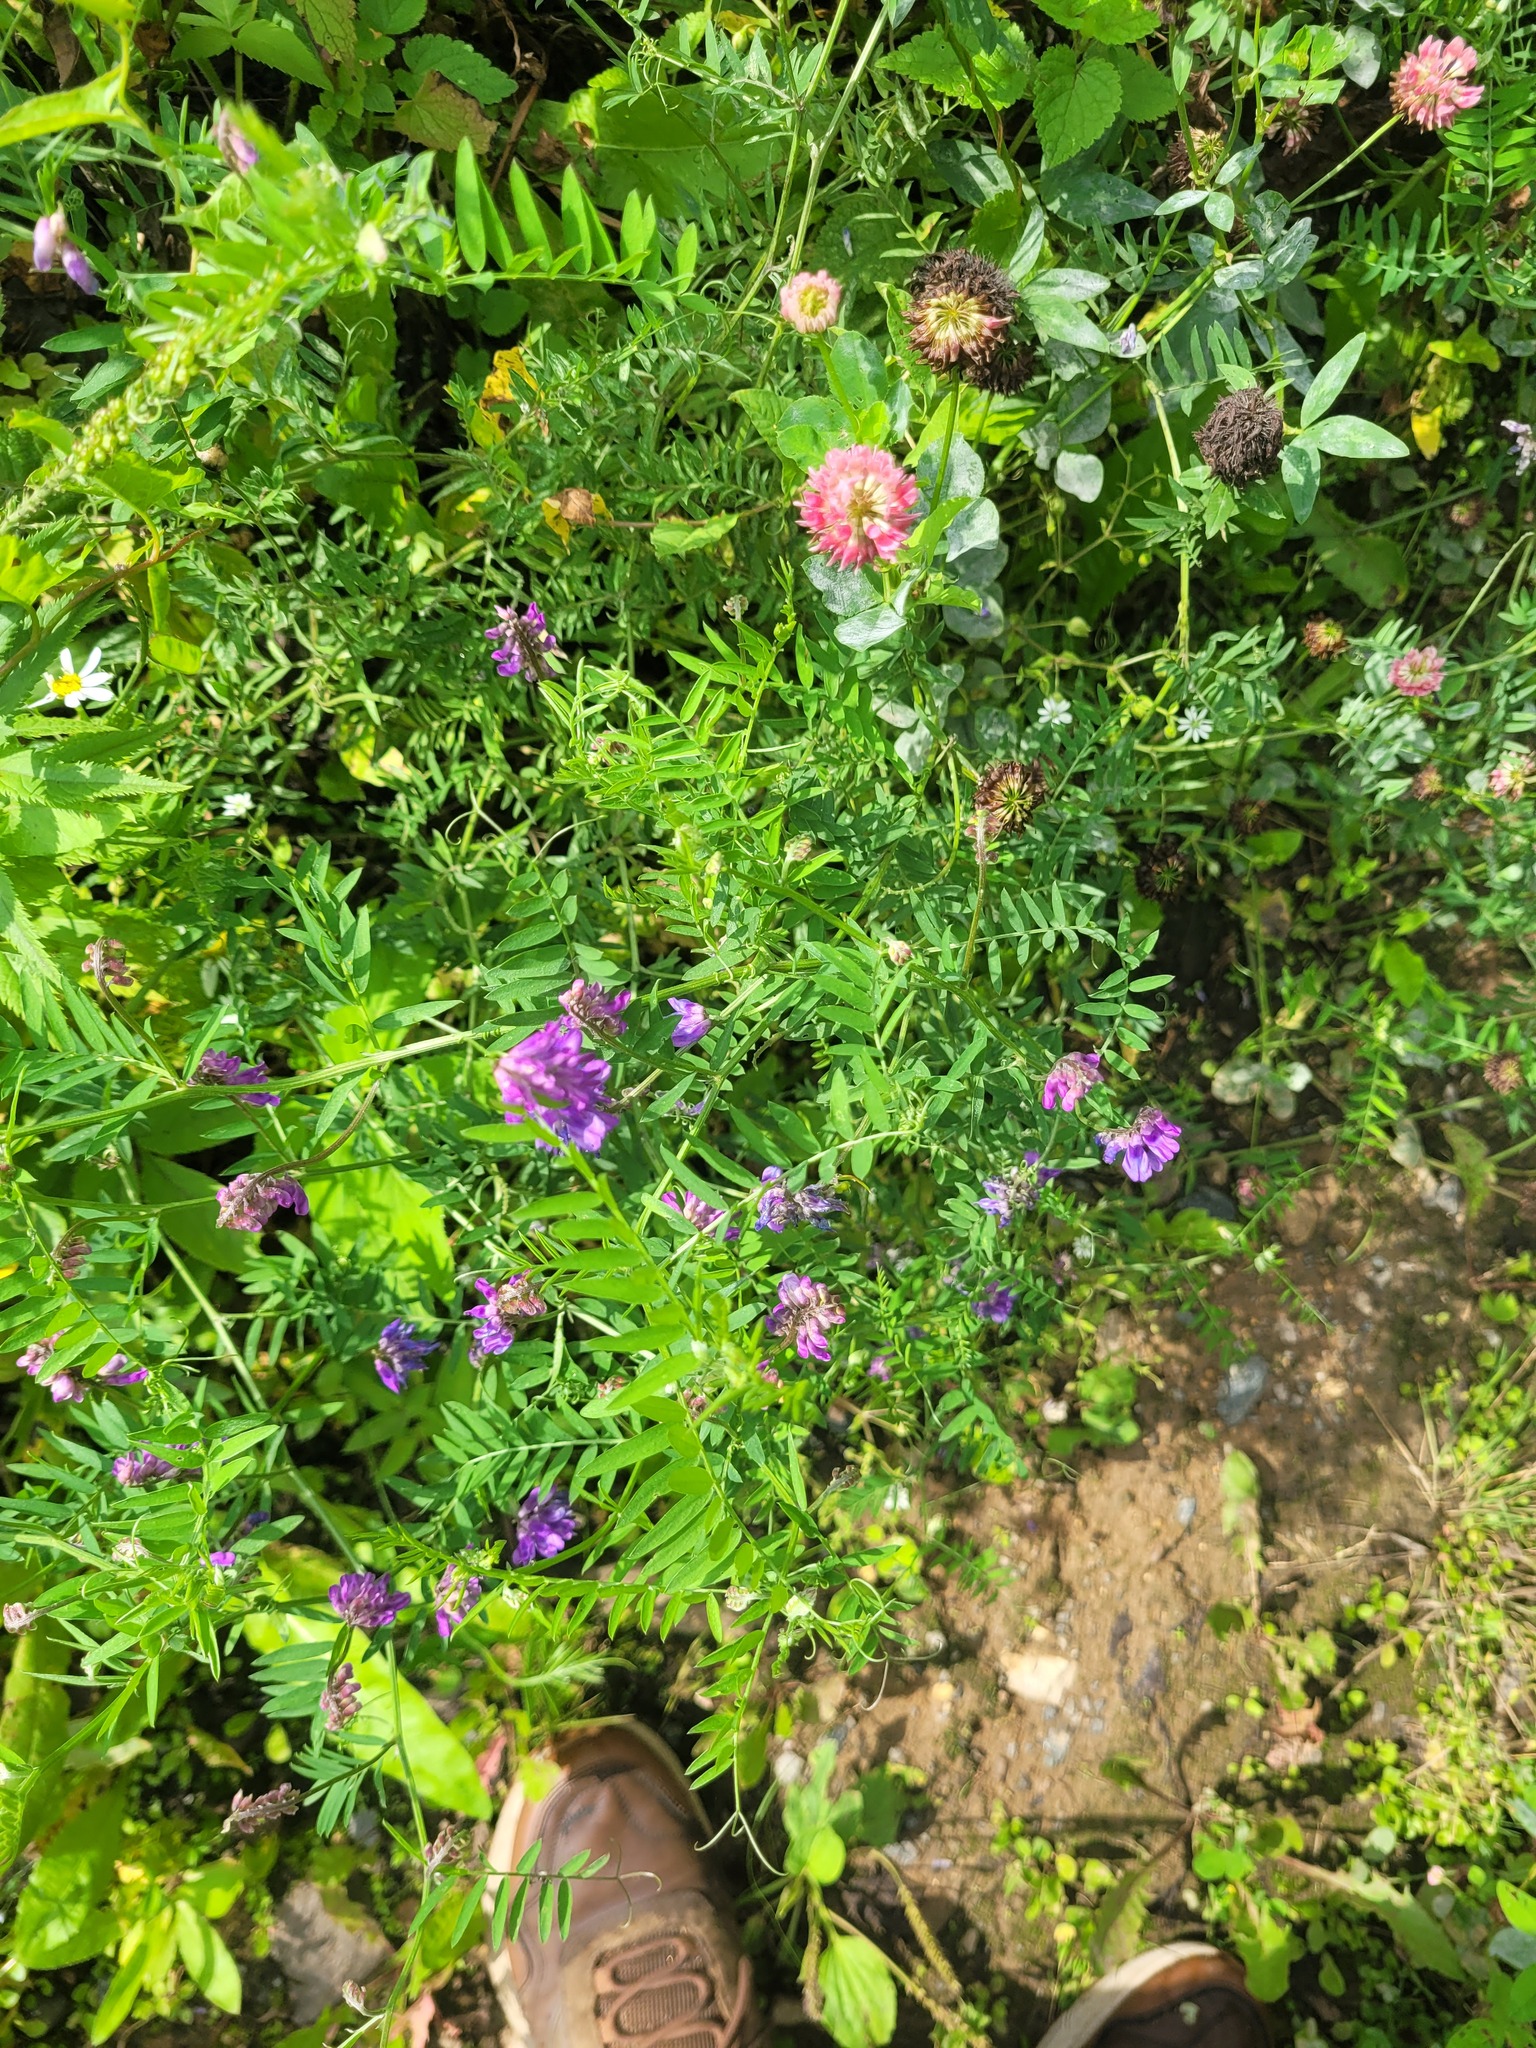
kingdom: Plantae
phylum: Tracheophyta
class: Magnoliopsida
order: Fabales
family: Fabaceae
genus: Vicia
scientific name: Vicia cracca
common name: Bird vetch
